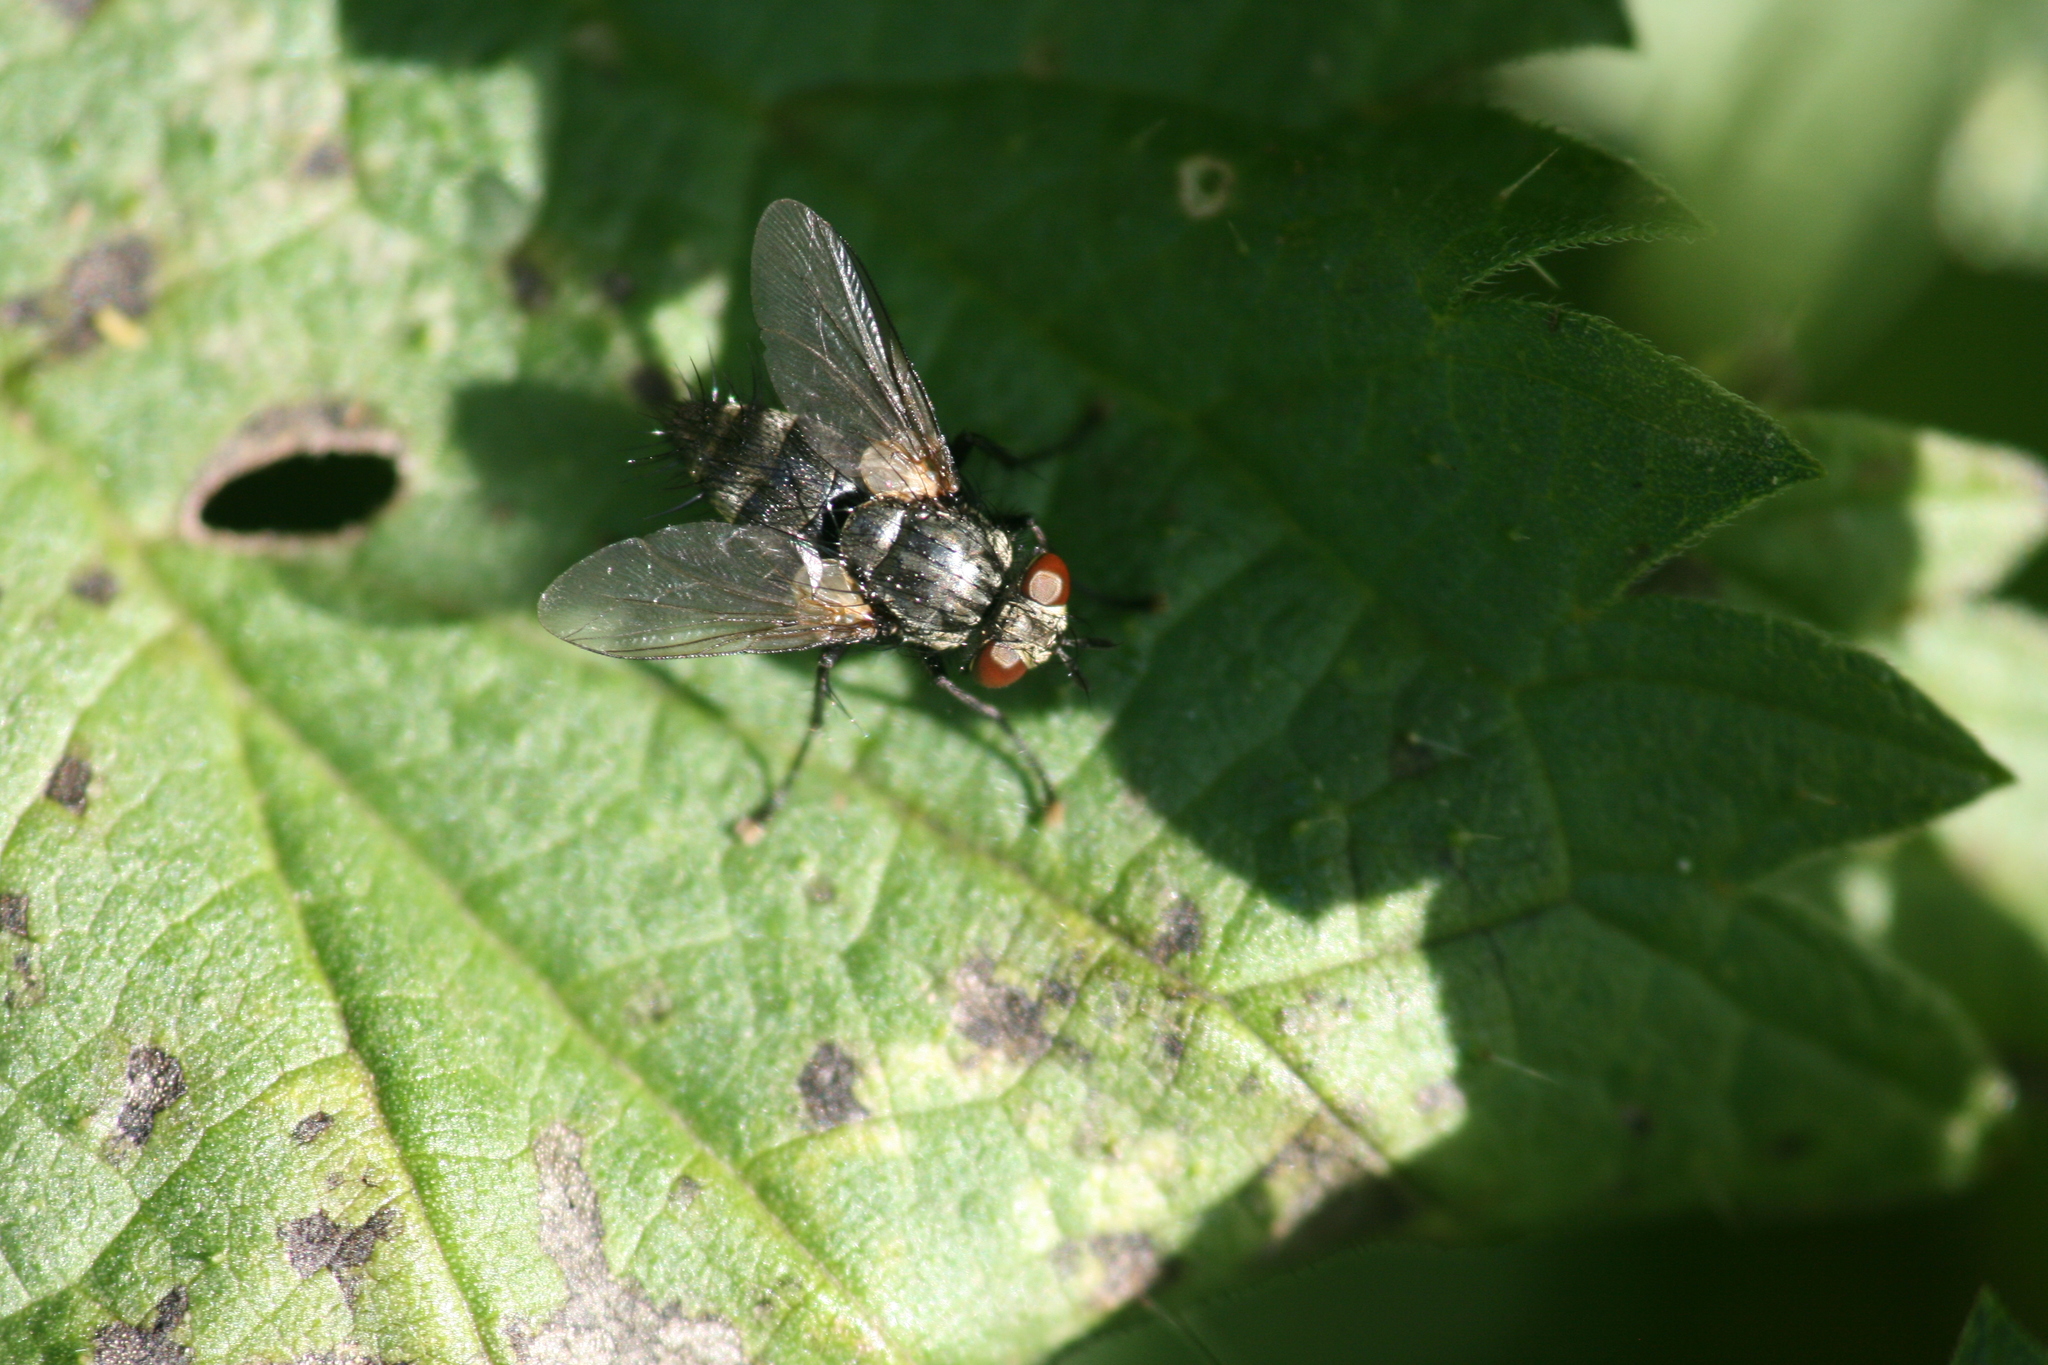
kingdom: Animalia
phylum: Arthropoda
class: Insecta
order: Diptera
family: Tachinidae
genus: Voria
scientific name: Voria ruralis
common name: Parasitic fly
